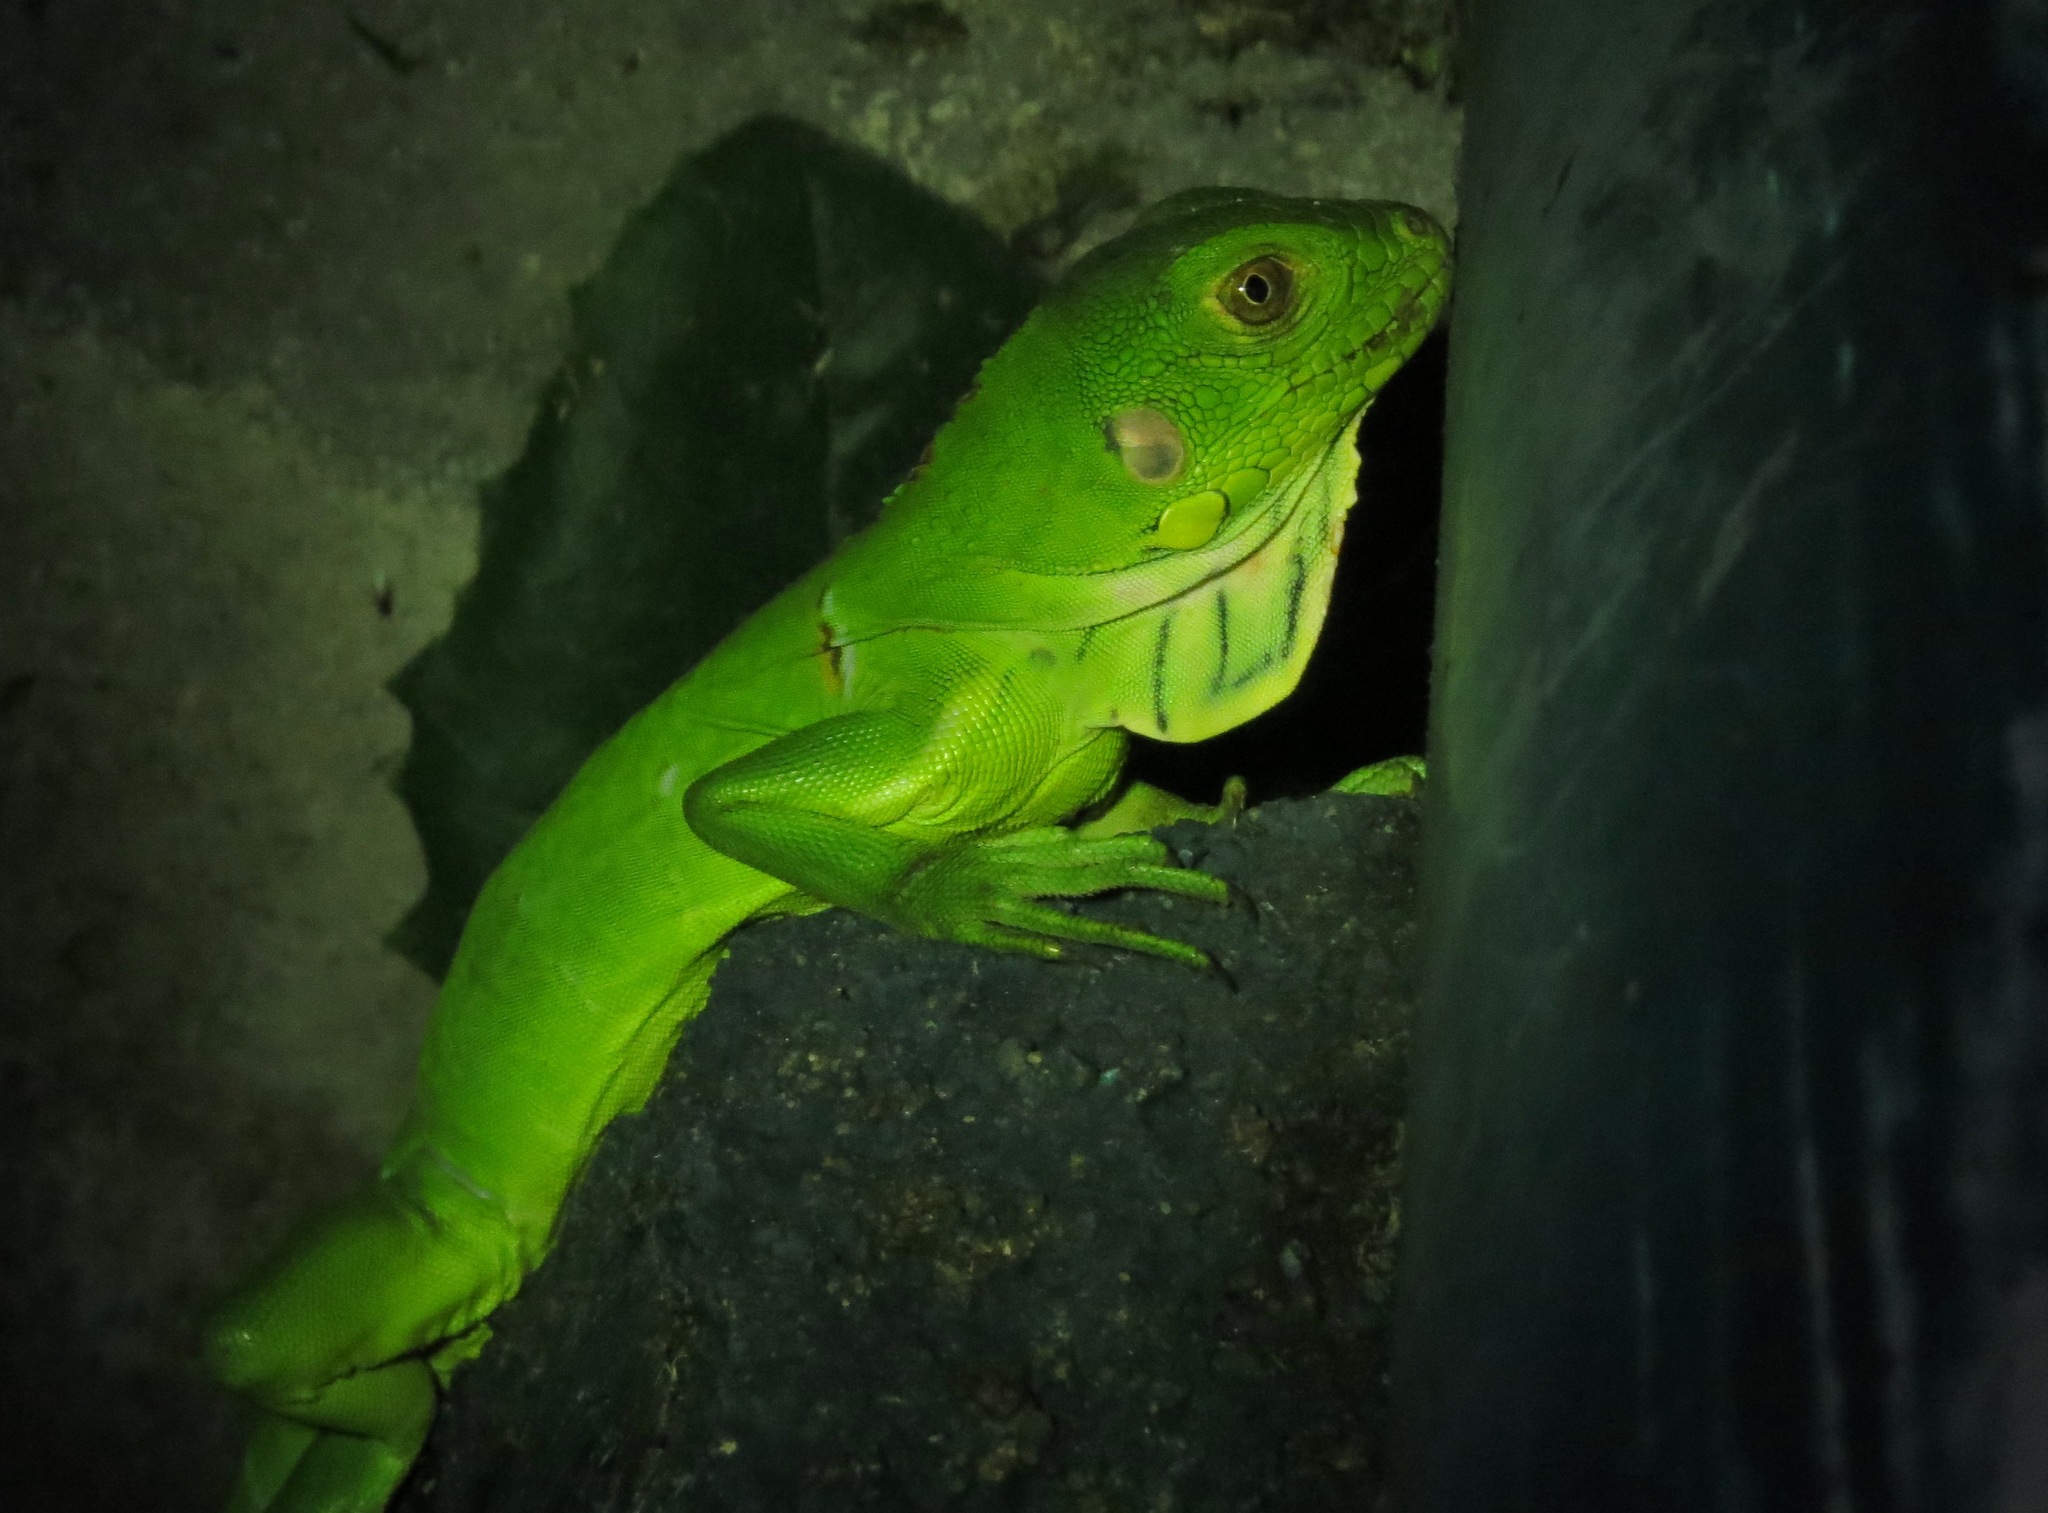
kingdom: Animalia
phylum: Chordata
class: Squamata
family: Iguanidae
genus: Iguana
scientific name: Iguana iguana
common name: Green iguana
